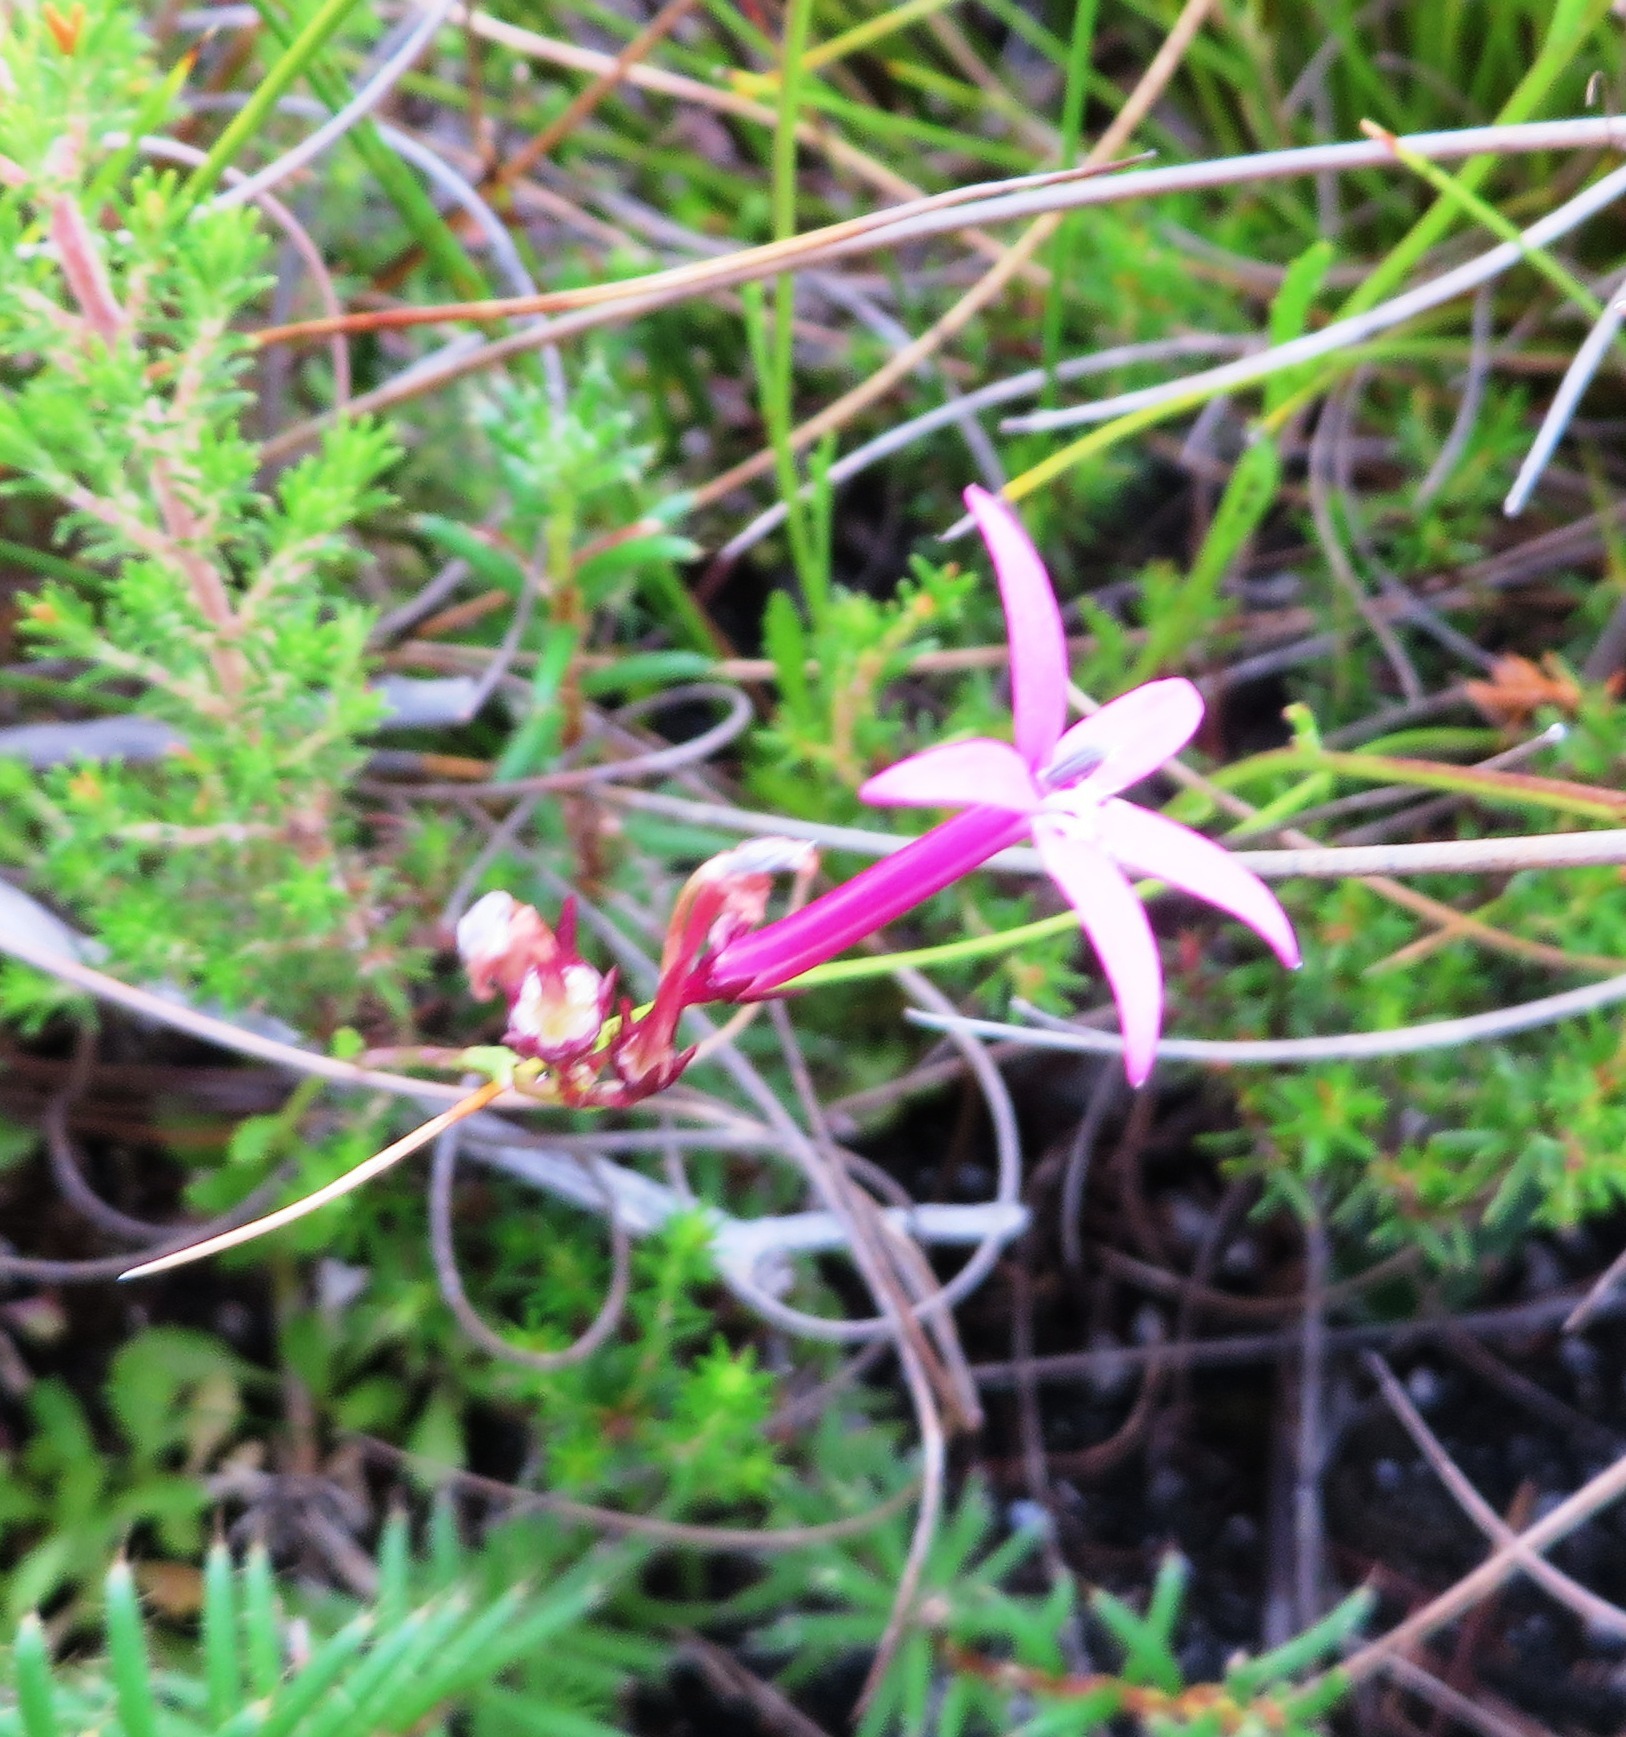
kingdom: Plantae
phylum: Tracheophyta
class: Magnoliopsida
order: Asterales
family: Campanulaceae
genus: Lobelia
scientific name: Lobelia stenosiphon
